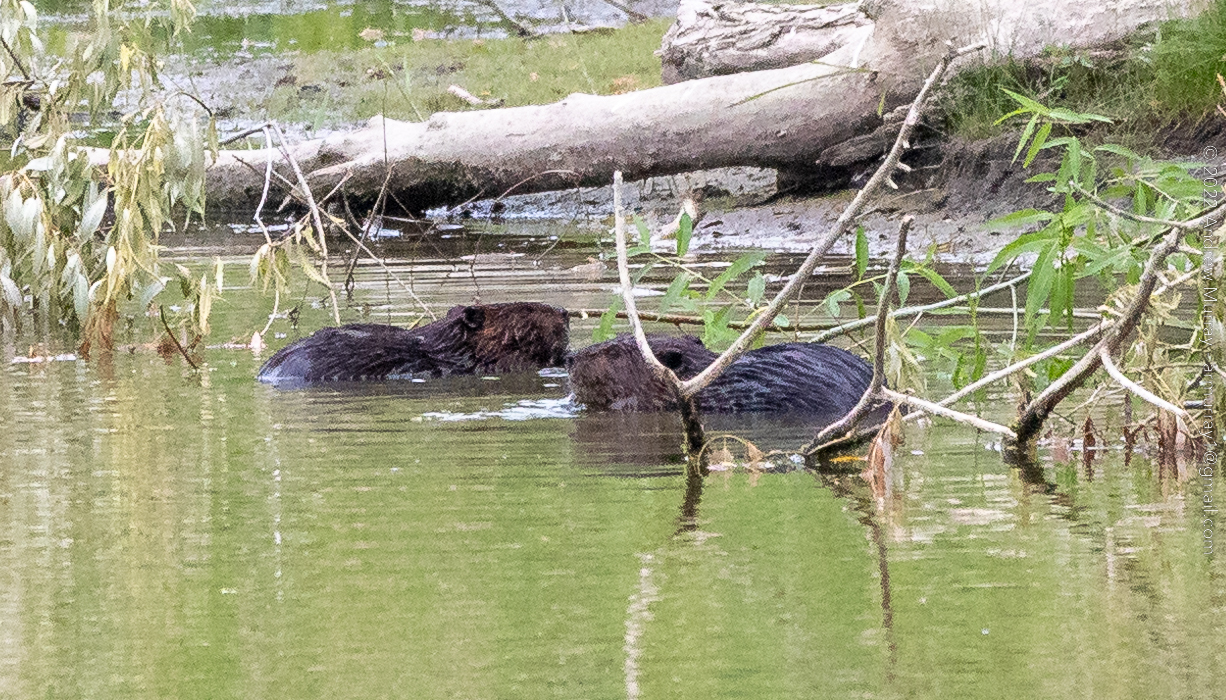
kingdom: Animalia
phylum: Chordata
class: Mammalia
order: Rodentia
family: Castoridae
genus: Castor
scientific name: Castor canadensis
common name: American beaver
